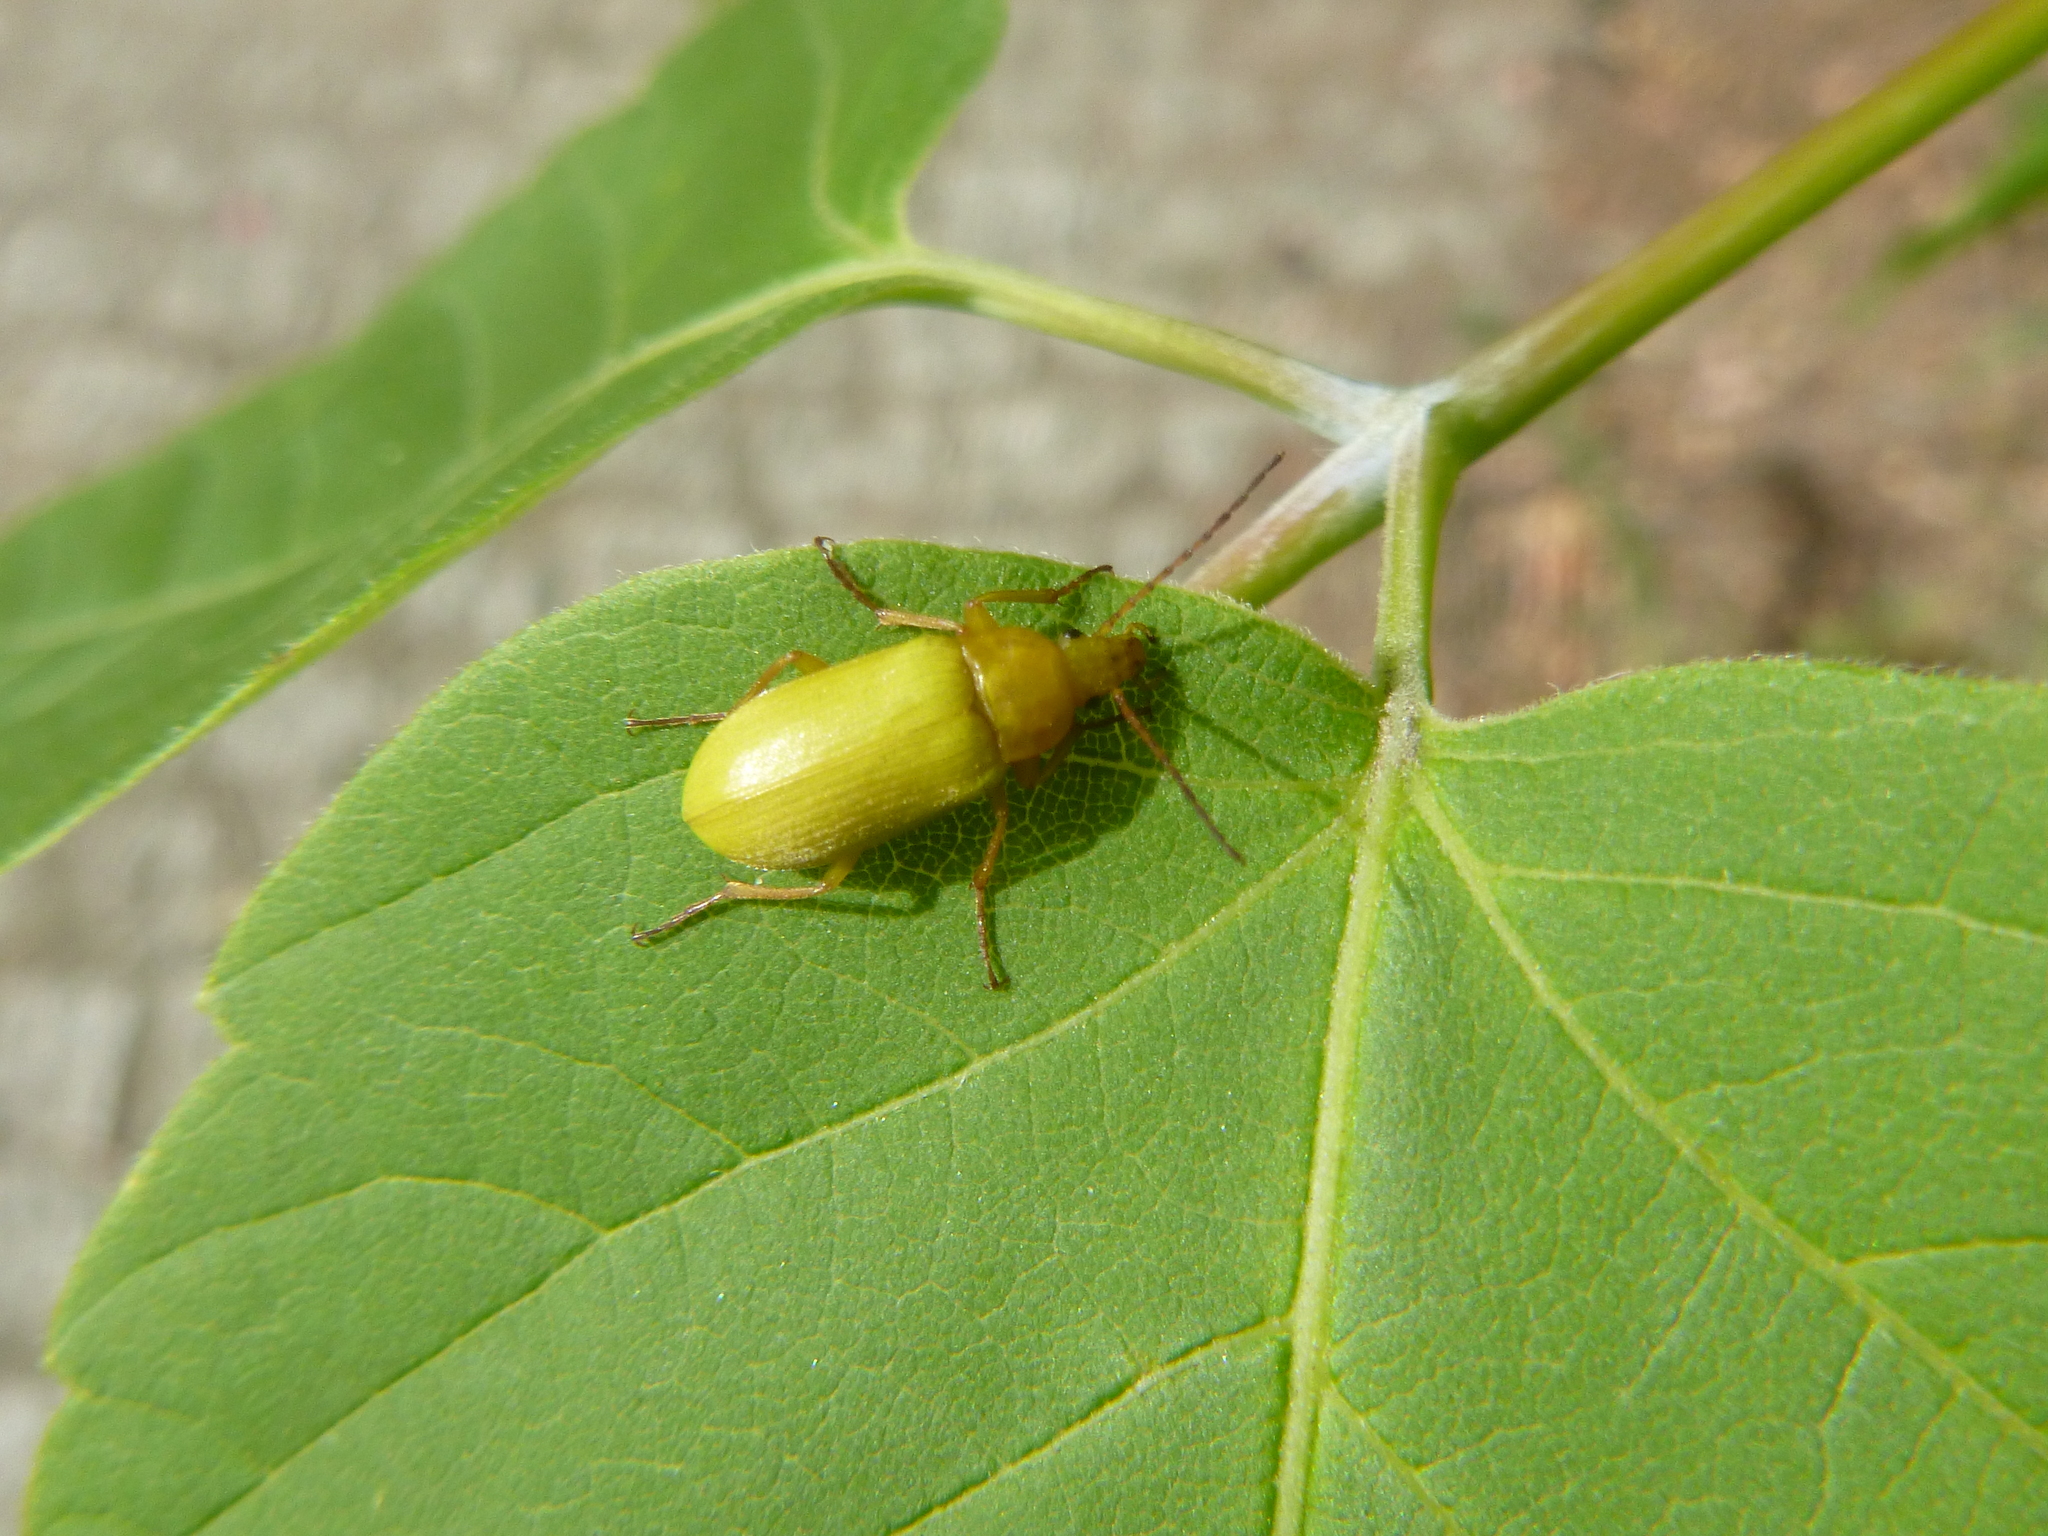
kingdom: Animalia
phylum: Arthropoda
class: Insecta
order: Coleoptera
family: Tenebrionidae
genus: Cteniopus
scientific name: Cteniopus sulphureus
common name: Sulphur beetle
